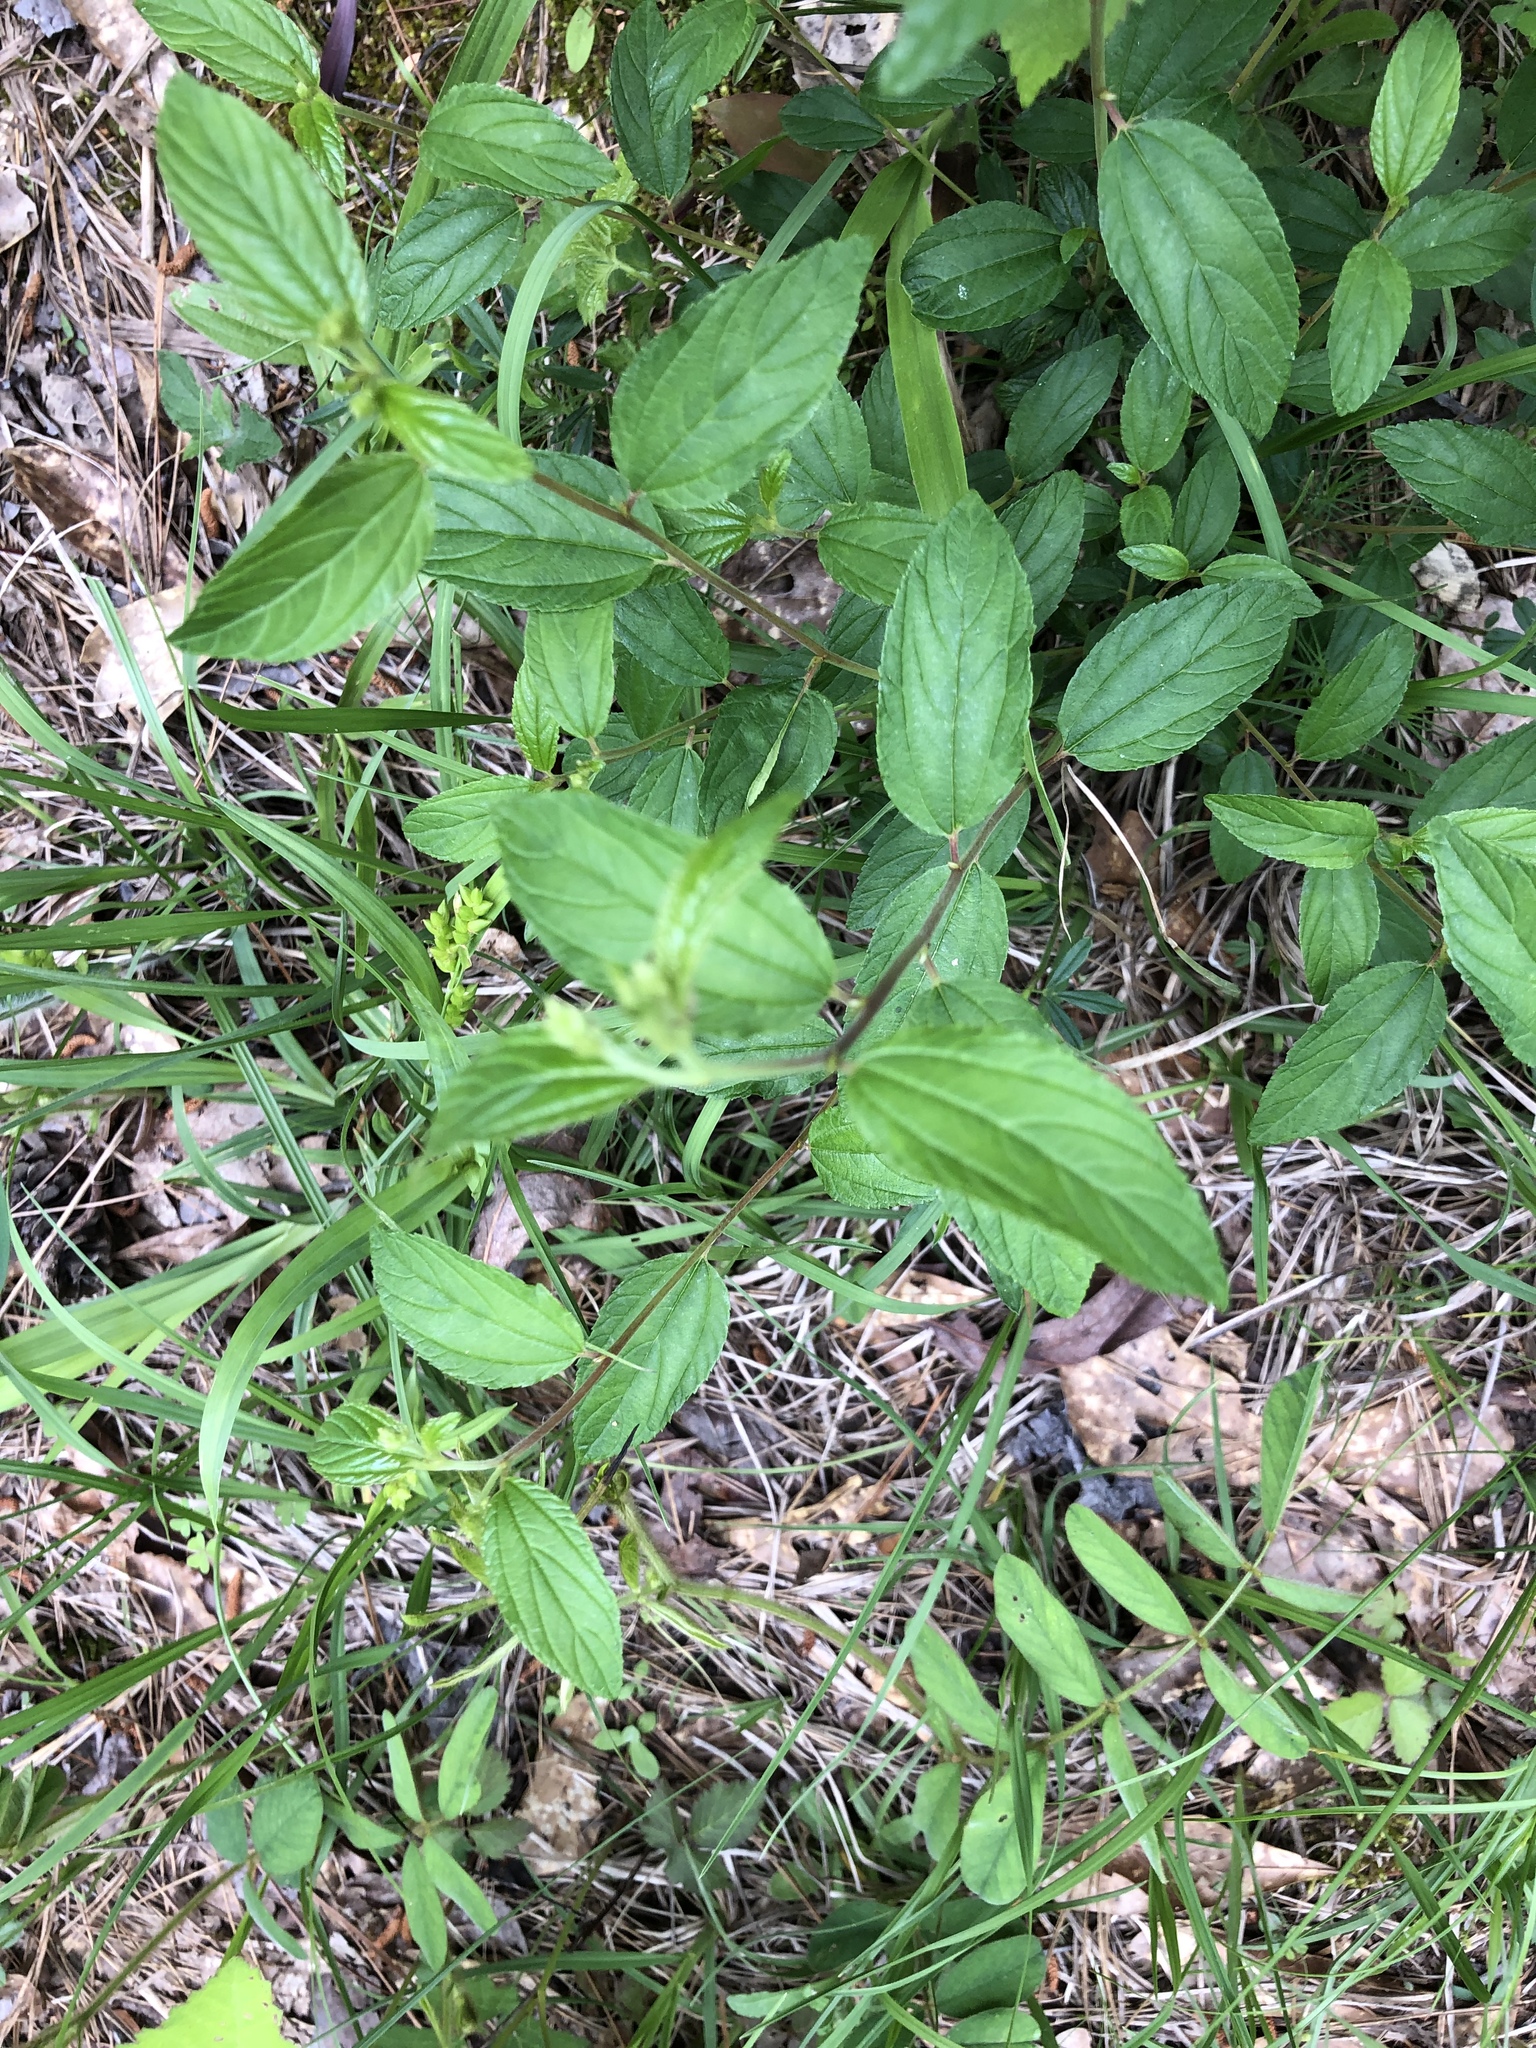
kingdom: Plantae
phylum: Tracheophyta
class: Magnoliopsida
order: Rosales
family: Rhamnaceae
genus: Ceanothus
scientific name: Ceanothus americanus
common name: Redroot
